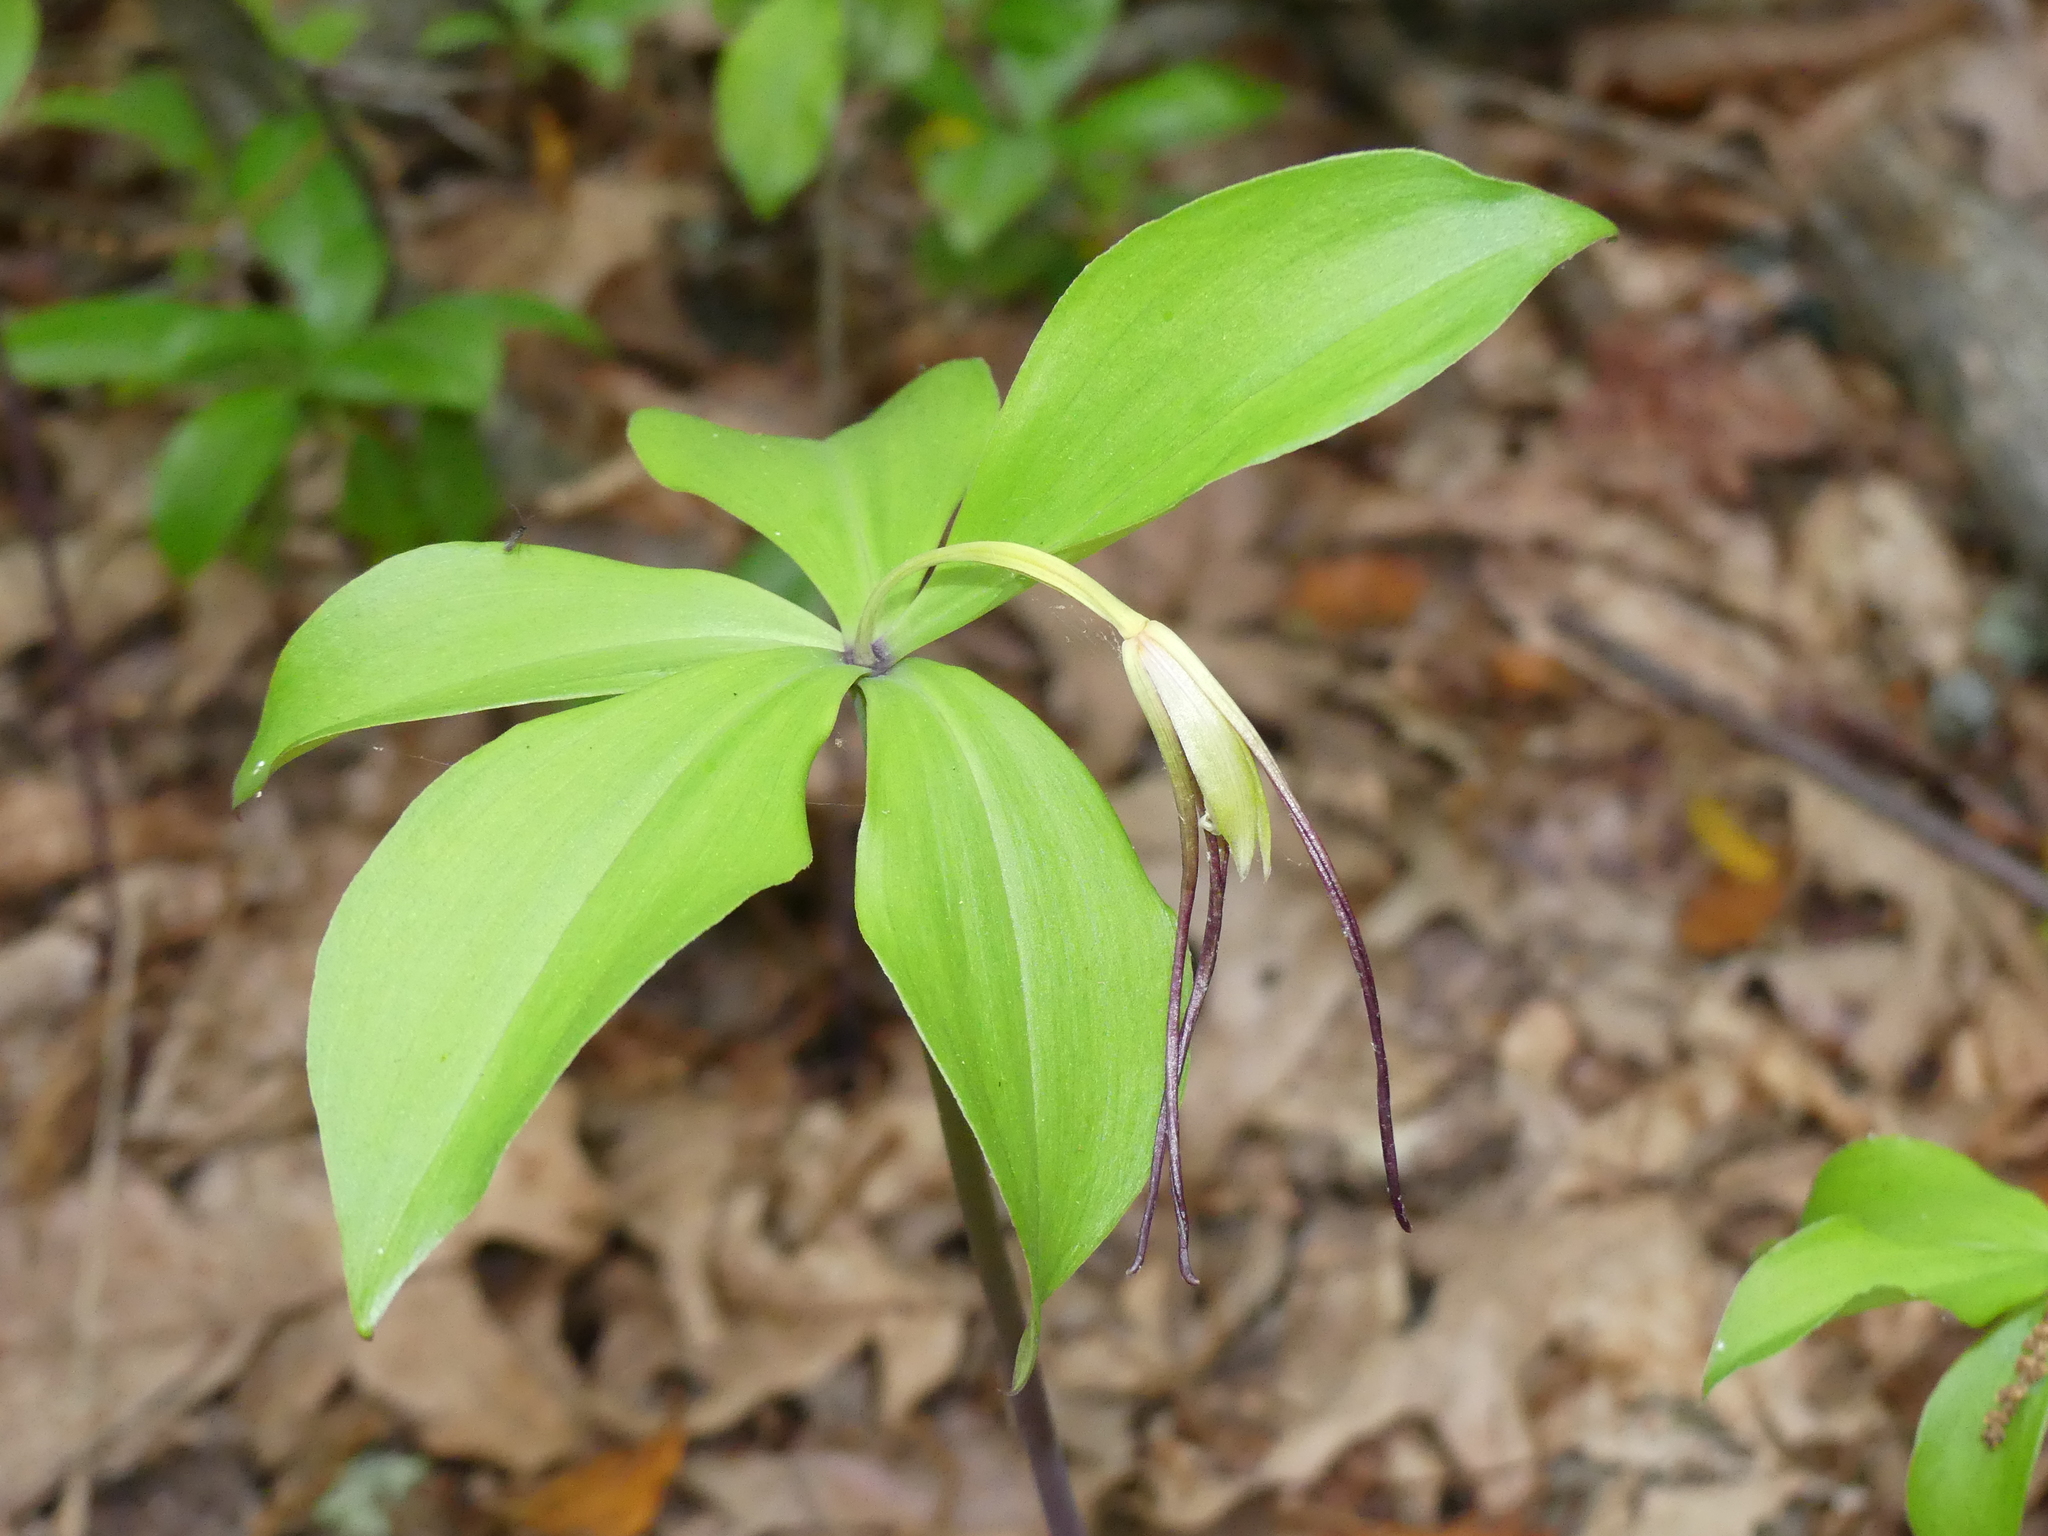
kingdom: Plantae
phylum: Tracheophyta
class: Liliopsida
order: Asparagales
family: Orchidaceae
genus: Isotria
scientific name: Isotria verticillata
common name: Large whorled pogonia
